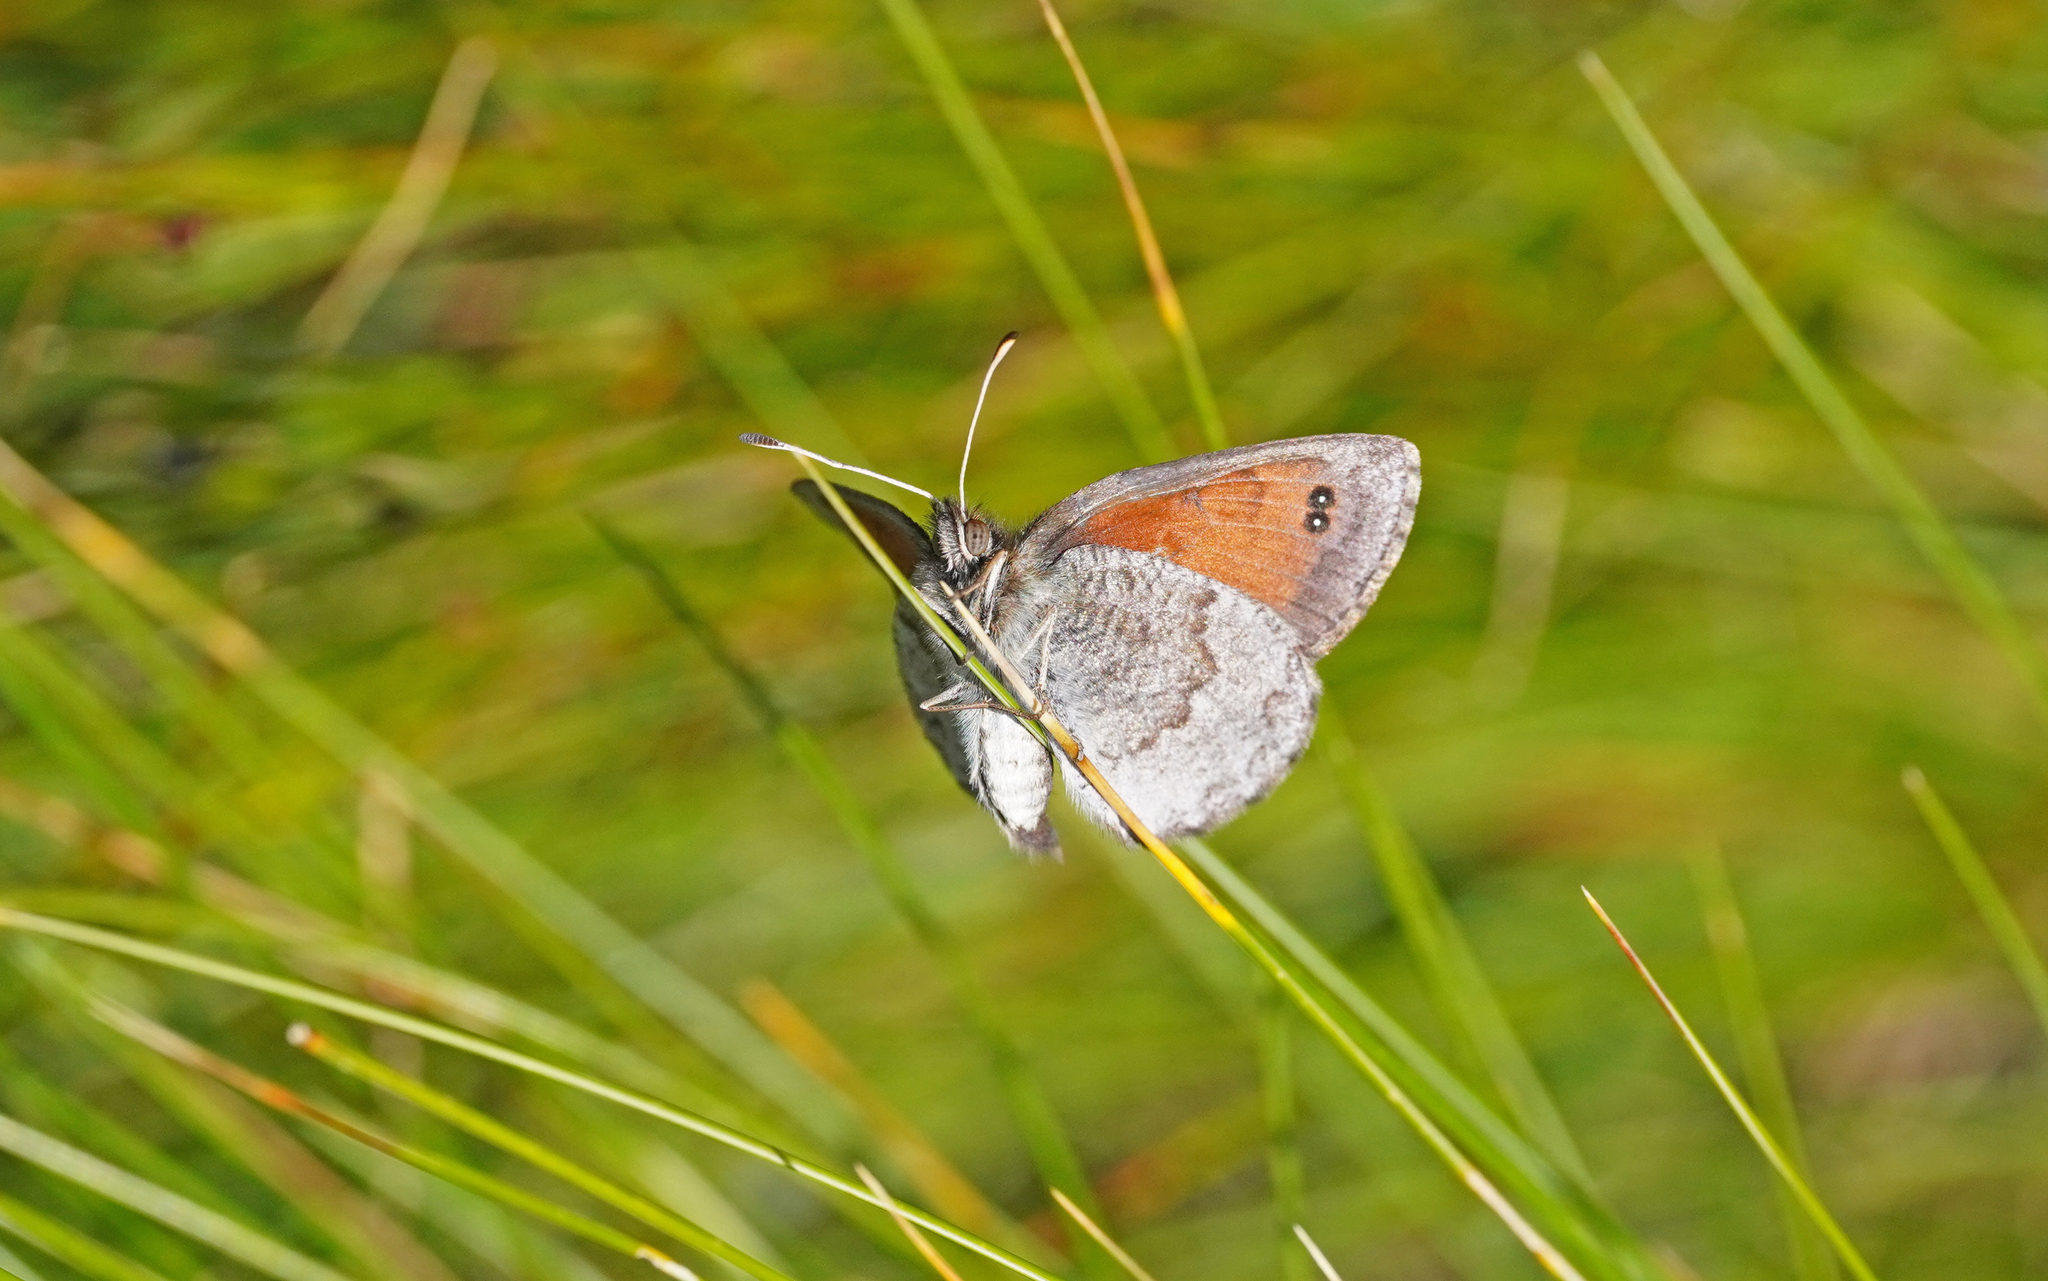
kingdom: Animalia
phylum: Arthropoda
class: Insecta
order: Lepidoptera
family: Nymphalidae
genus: Erebia
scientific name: Erebia tyndarus
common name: Swiss brassy ringlet
